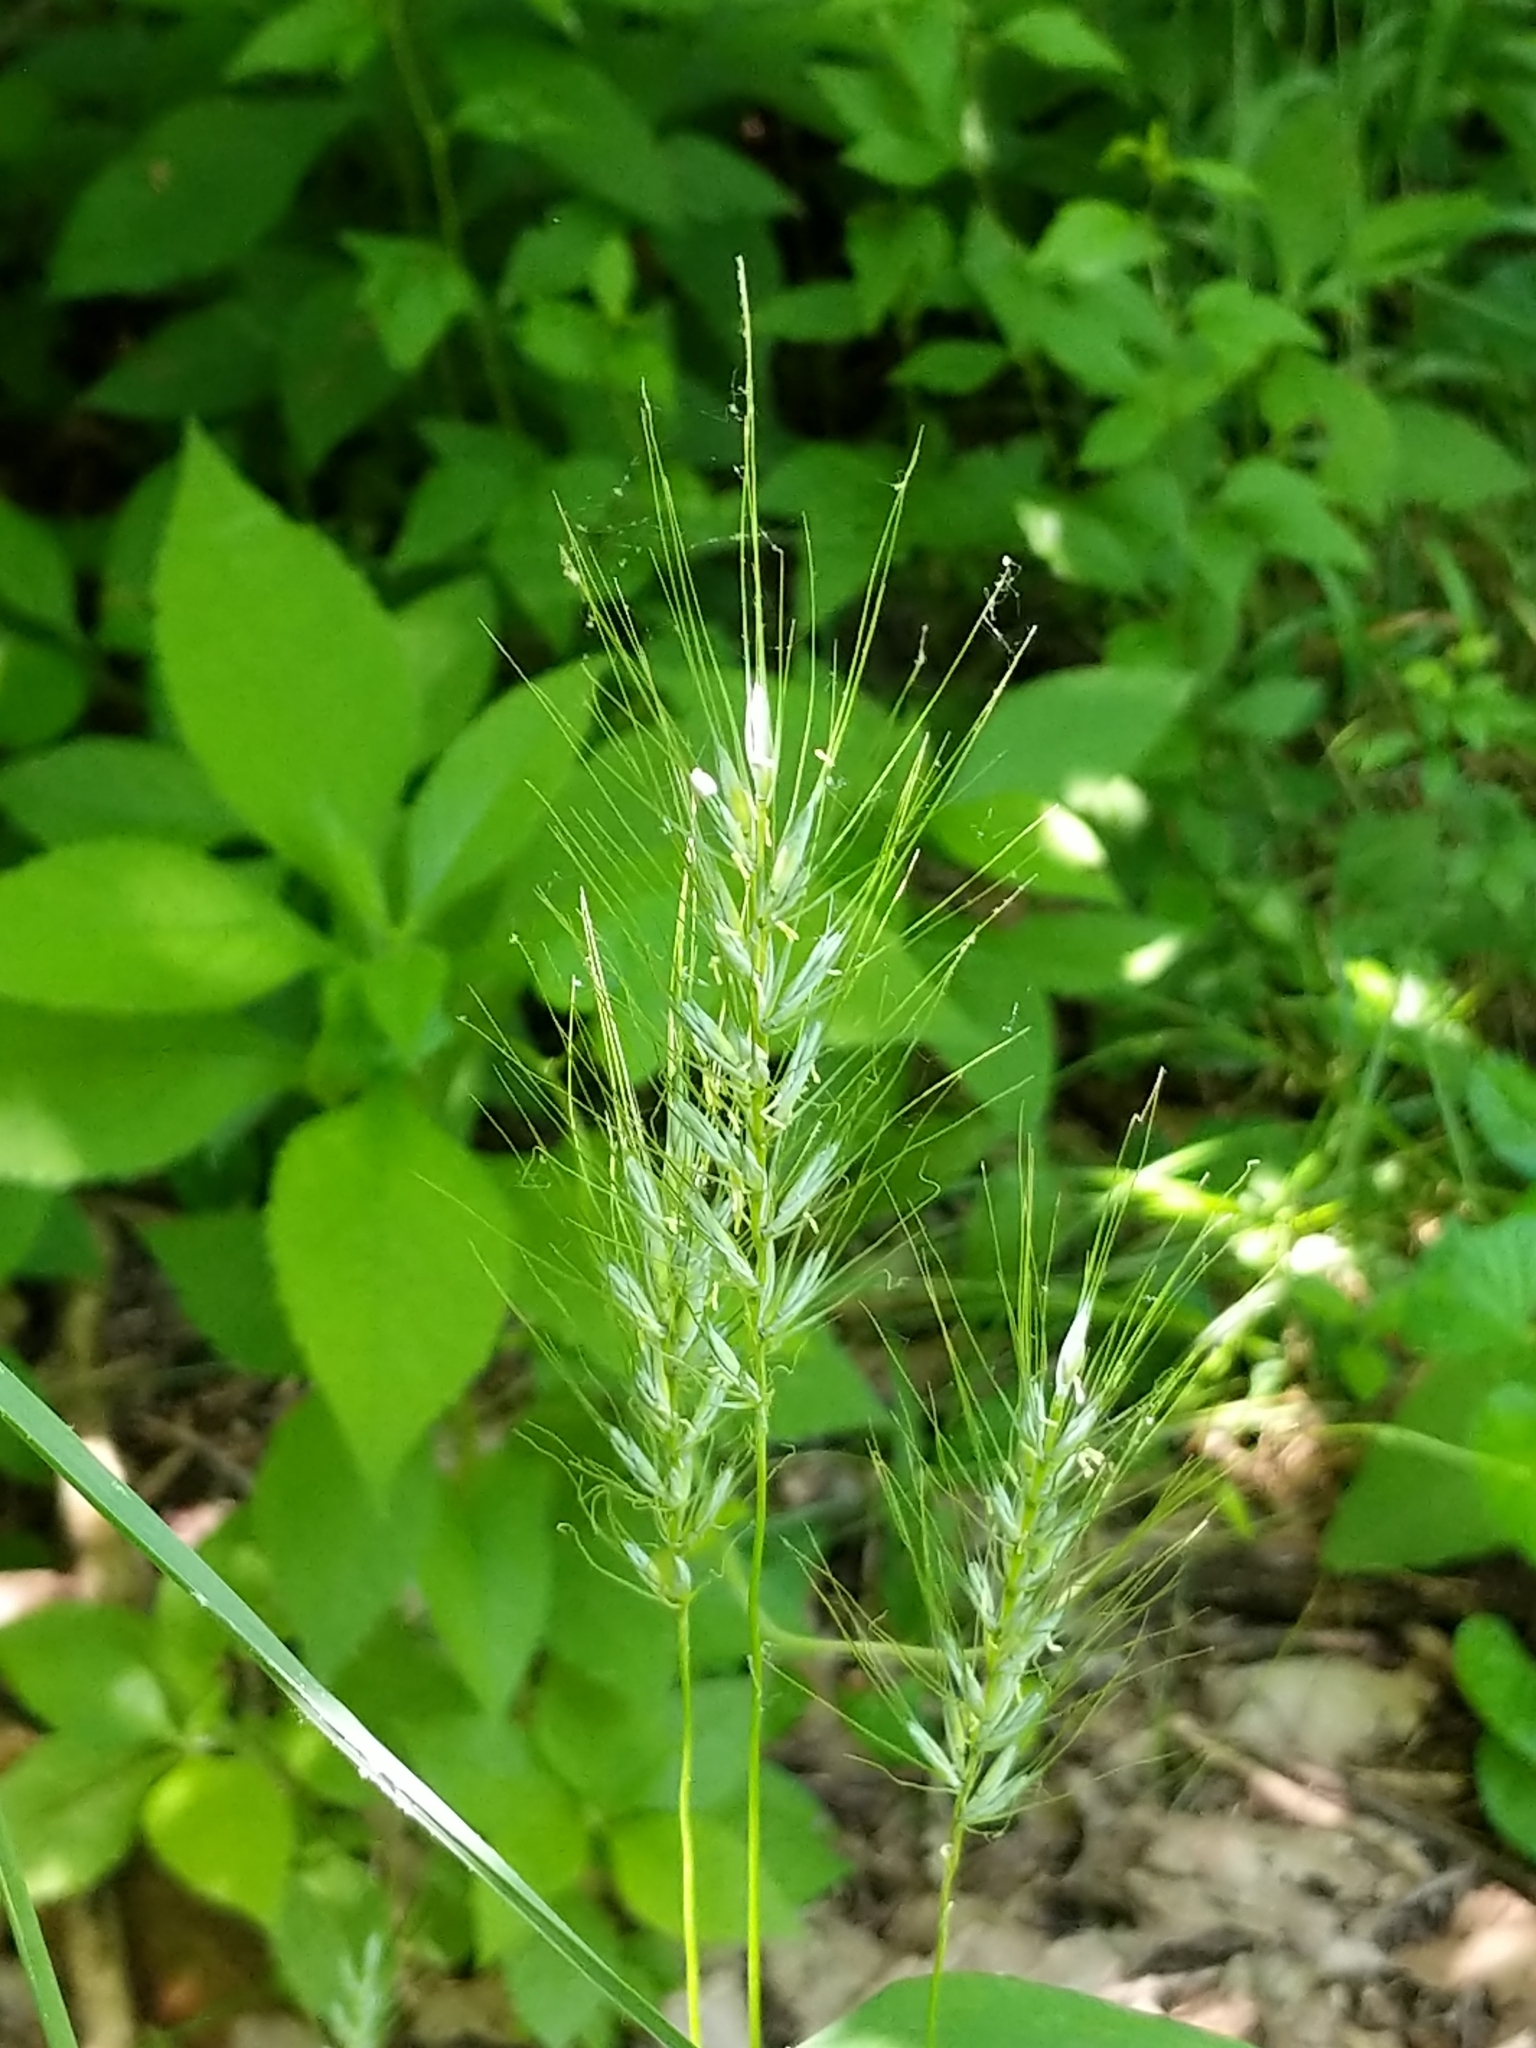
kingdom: Animalia
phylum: Arthropoda
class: Insecta
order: Odonata
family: Calopterygidae
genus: Calopteryx
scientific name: Calopteryx maculata
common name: Ebony jewelwing
